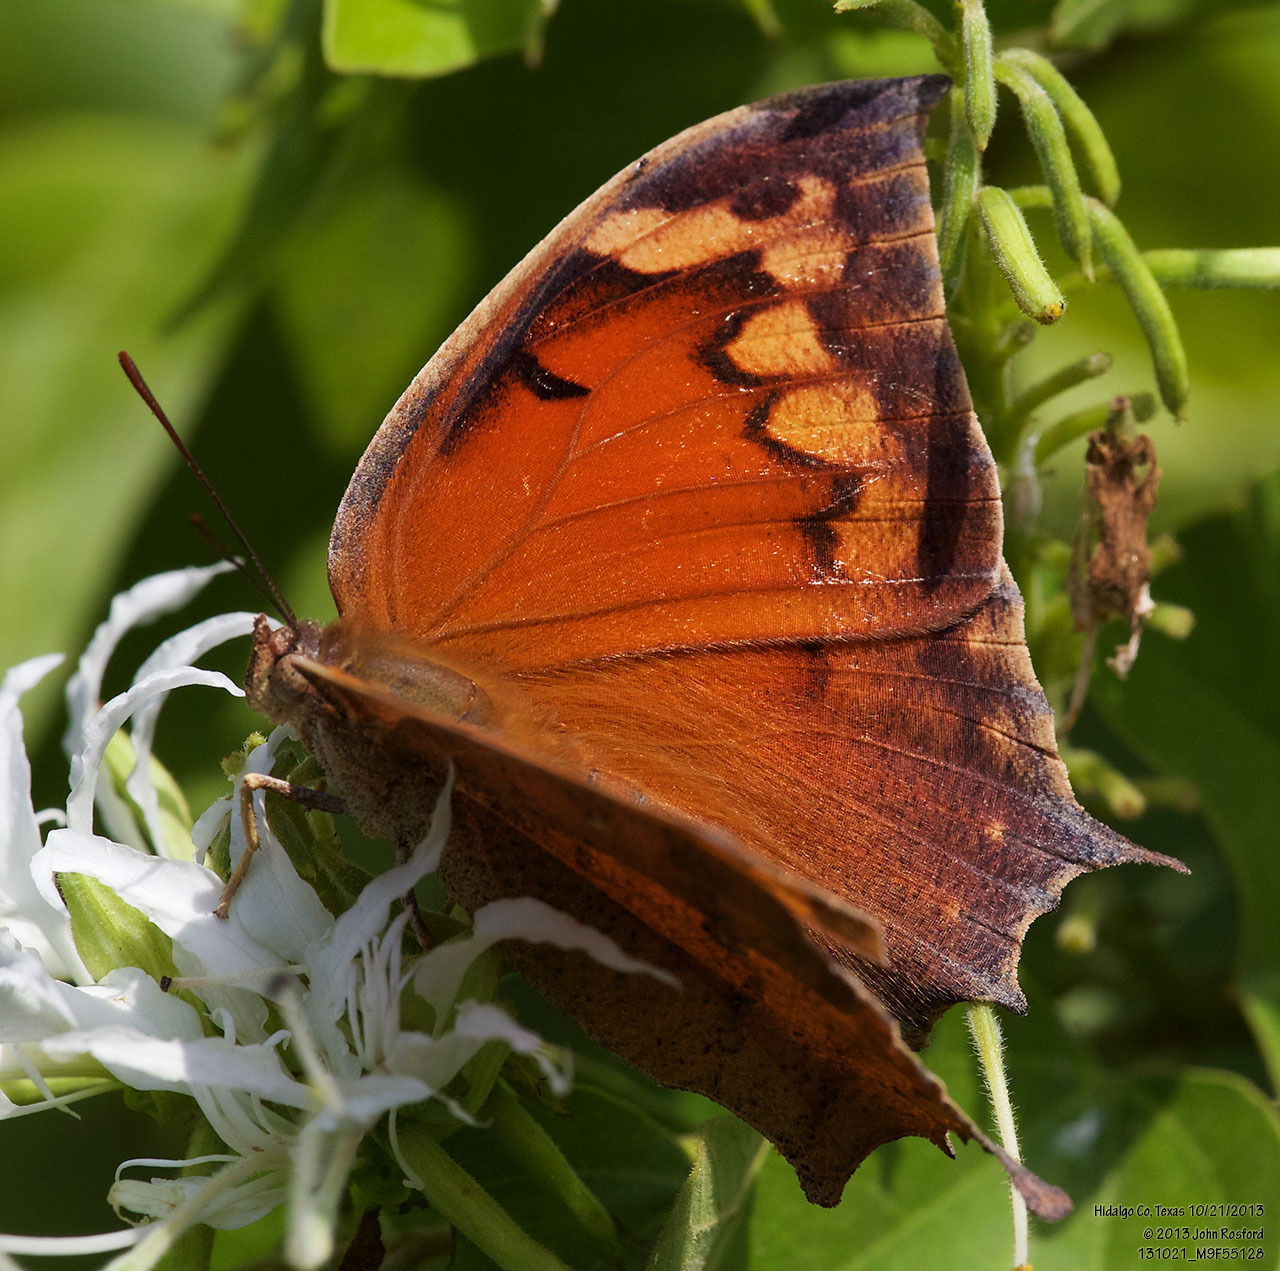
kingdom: Animalia
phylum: Arthropoda
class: Insecta
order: Lepidoptera
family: Nymphalidae
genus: Anaea
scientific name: Anaea aidea
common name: Tropical leafwing
